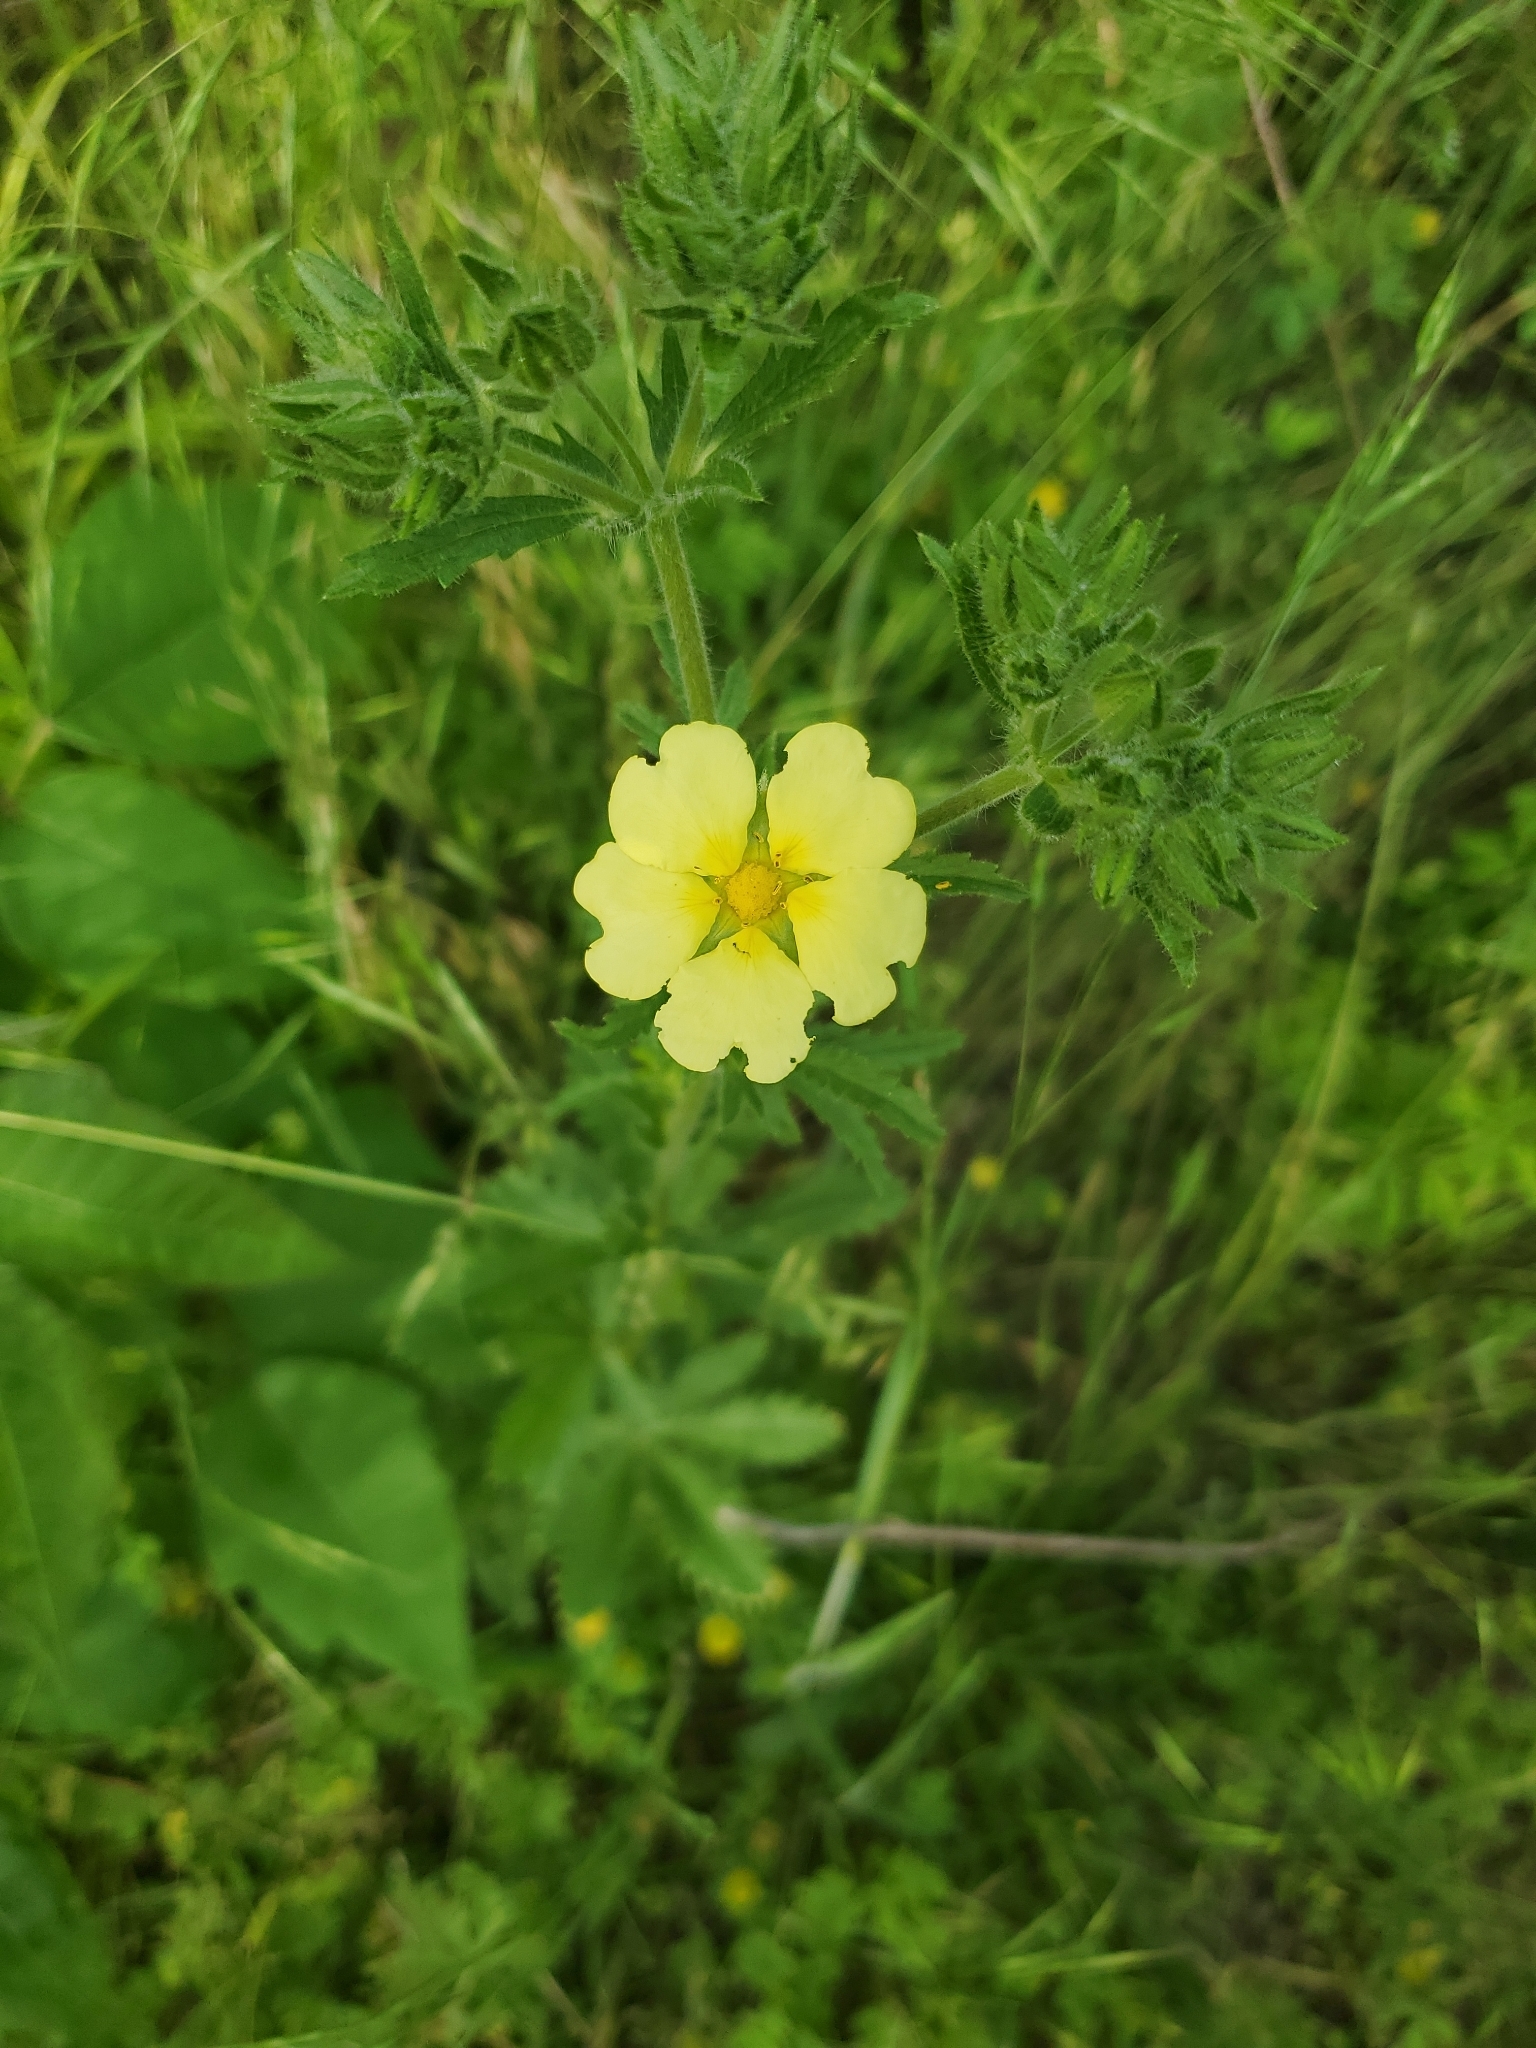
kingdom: Plantae
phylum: Tracheophyta
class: Magnoliopsida
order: Rosales
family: Rosaceae
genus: Potentilla
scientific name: Potentilla recta
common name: Sulphur cinquefoil
